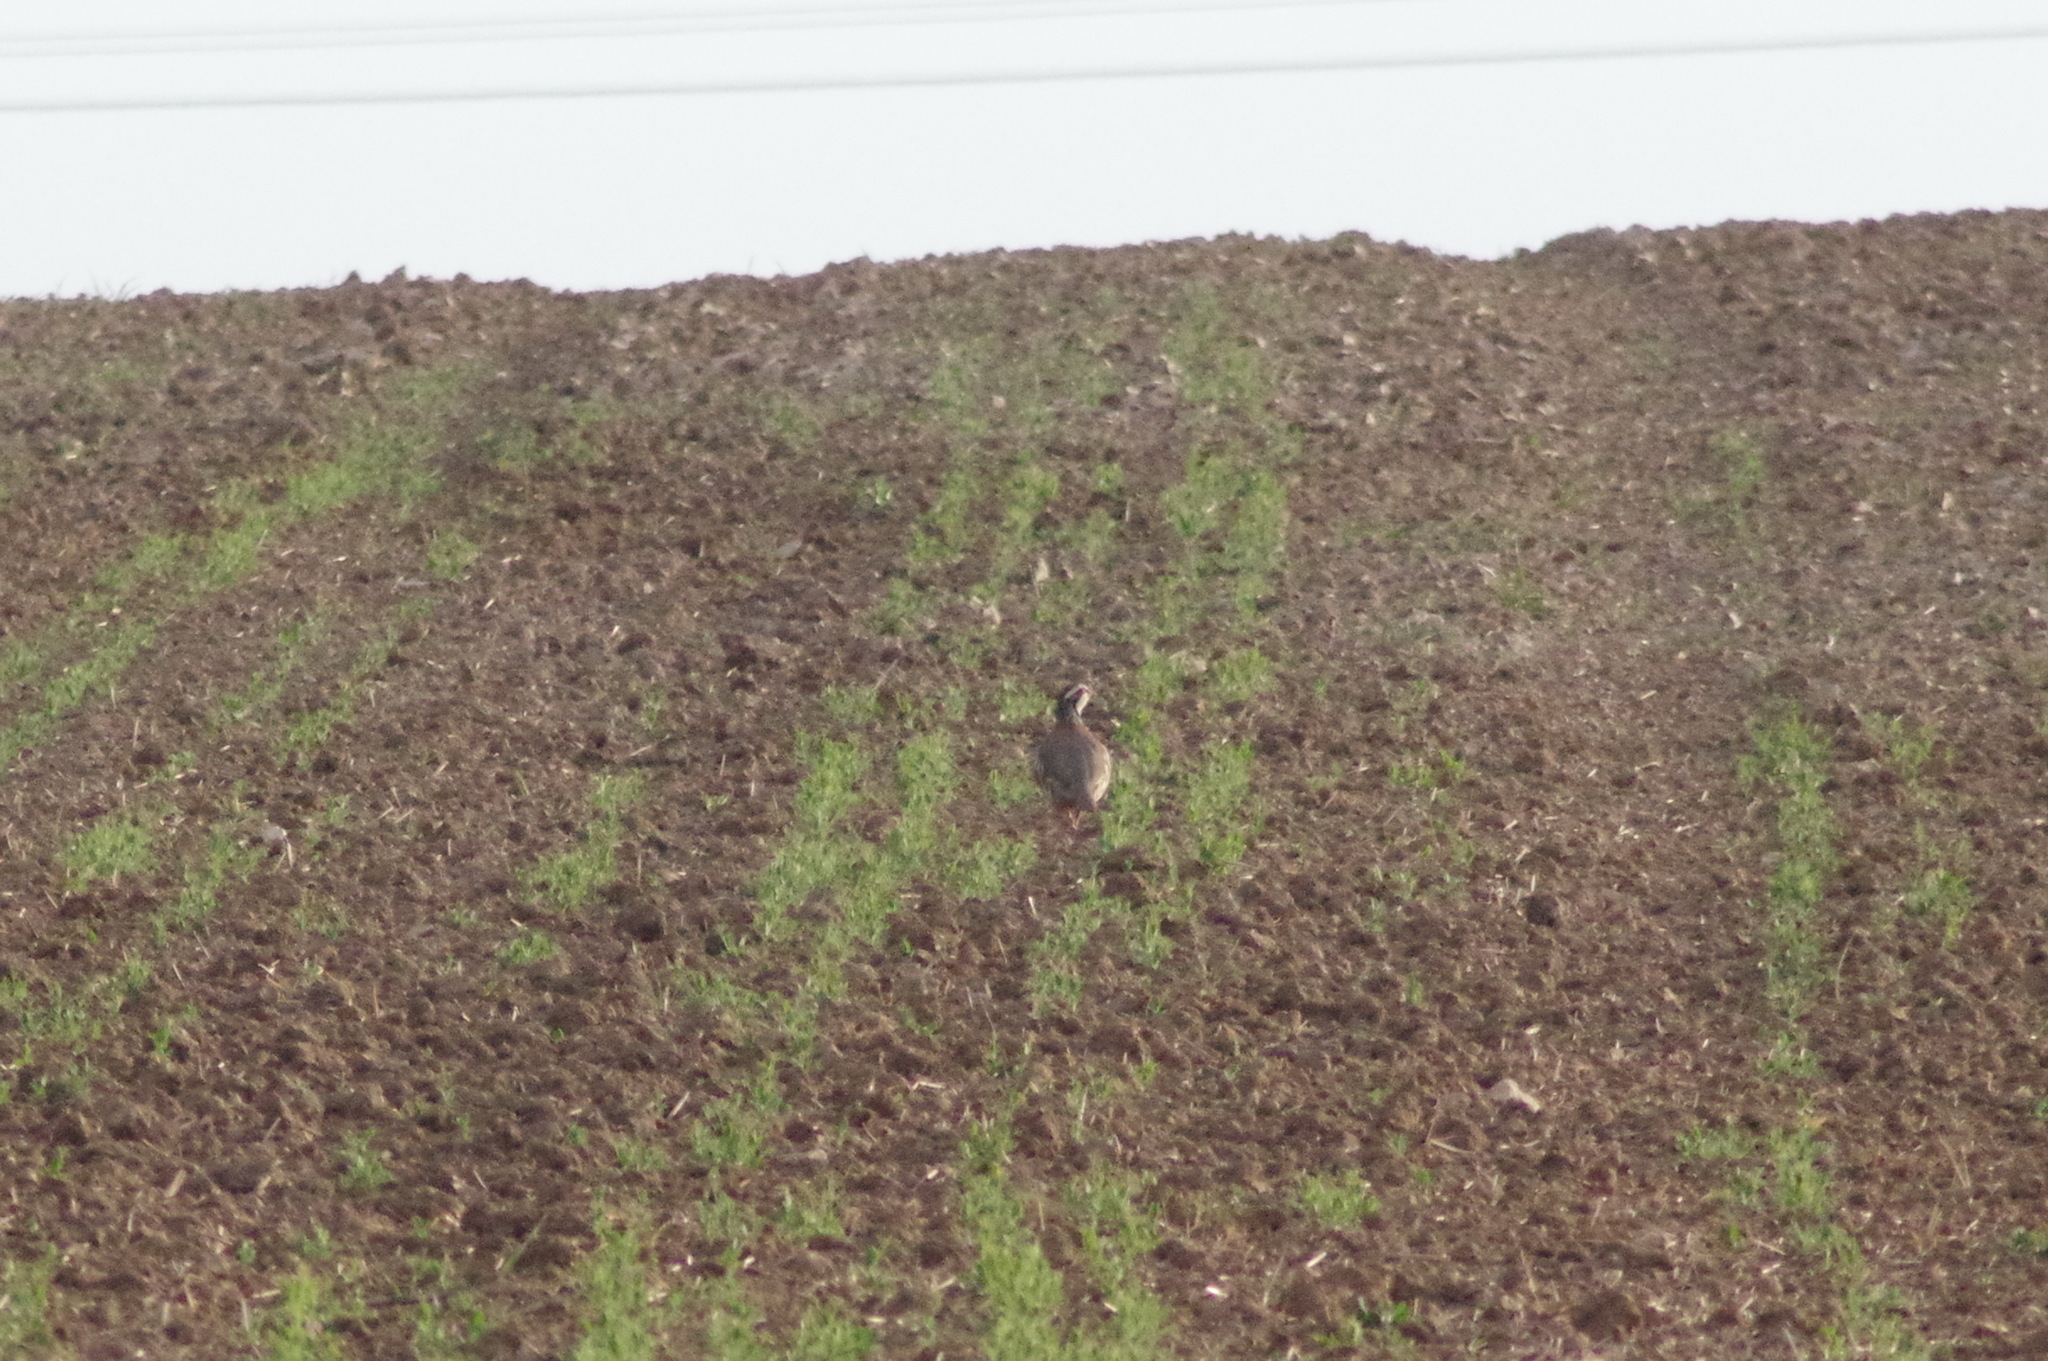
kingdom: Animalia
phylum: Chordata
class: Aves
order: Galliformes
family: Phasianidae
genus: Alectoris
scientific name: Alectoris rufa
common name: Red-legged partridge
